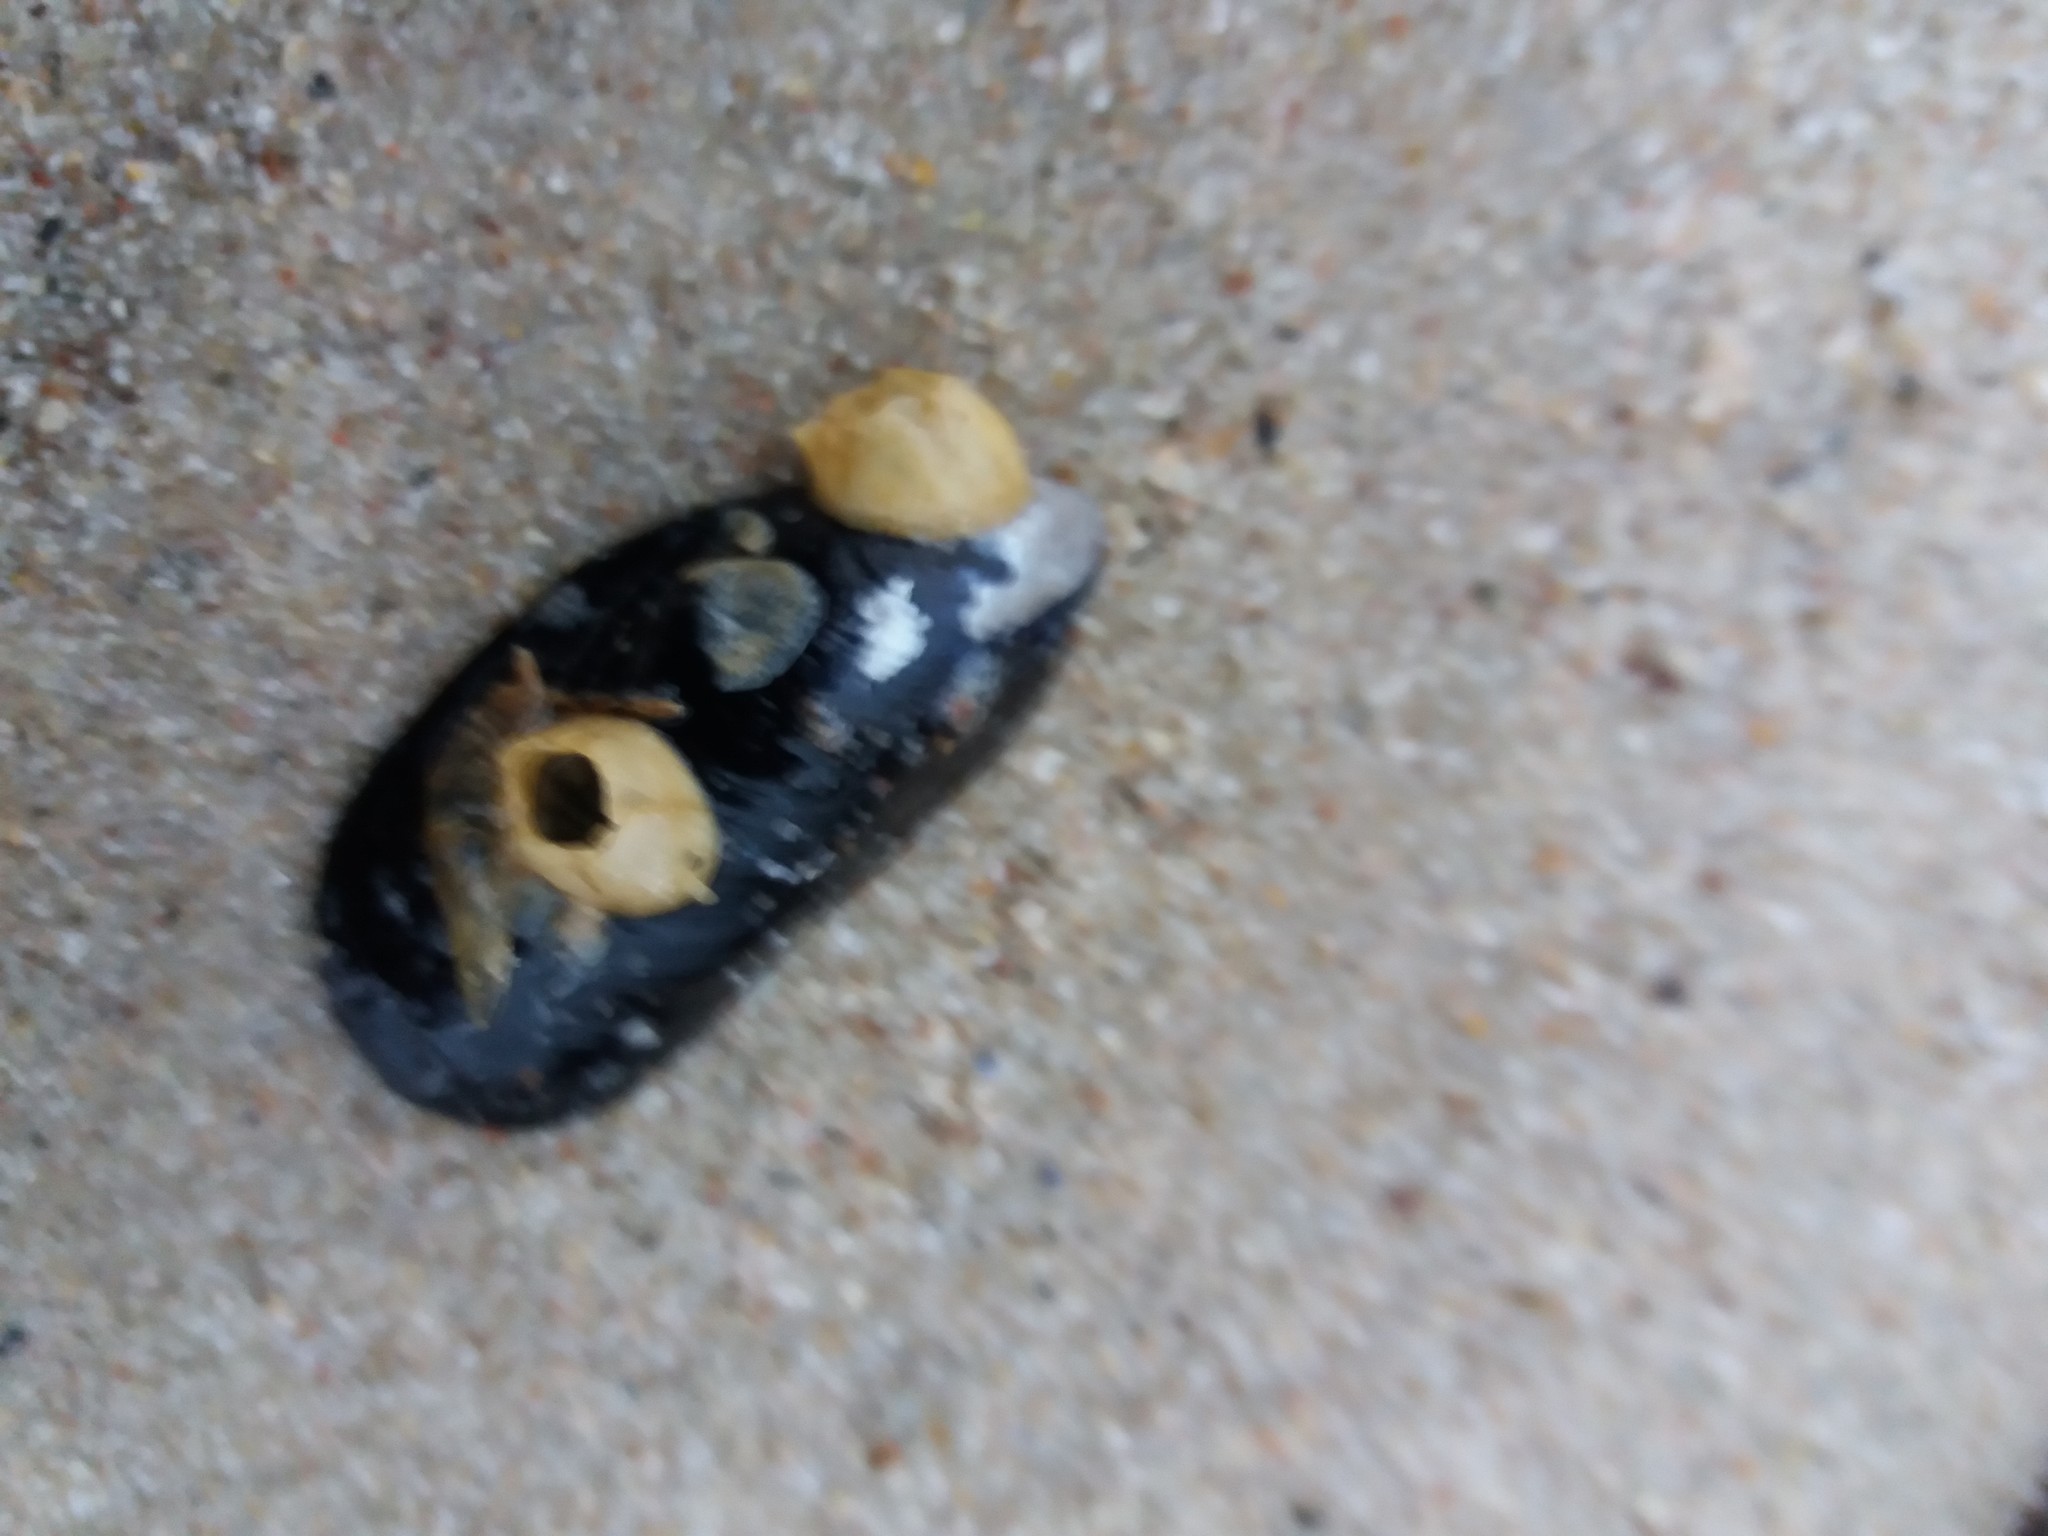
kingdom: Animalia
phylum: Mollusca
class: Bivalvia
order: Mytilida
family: Mytilidae
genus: Mytilus
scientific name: Mytilus
